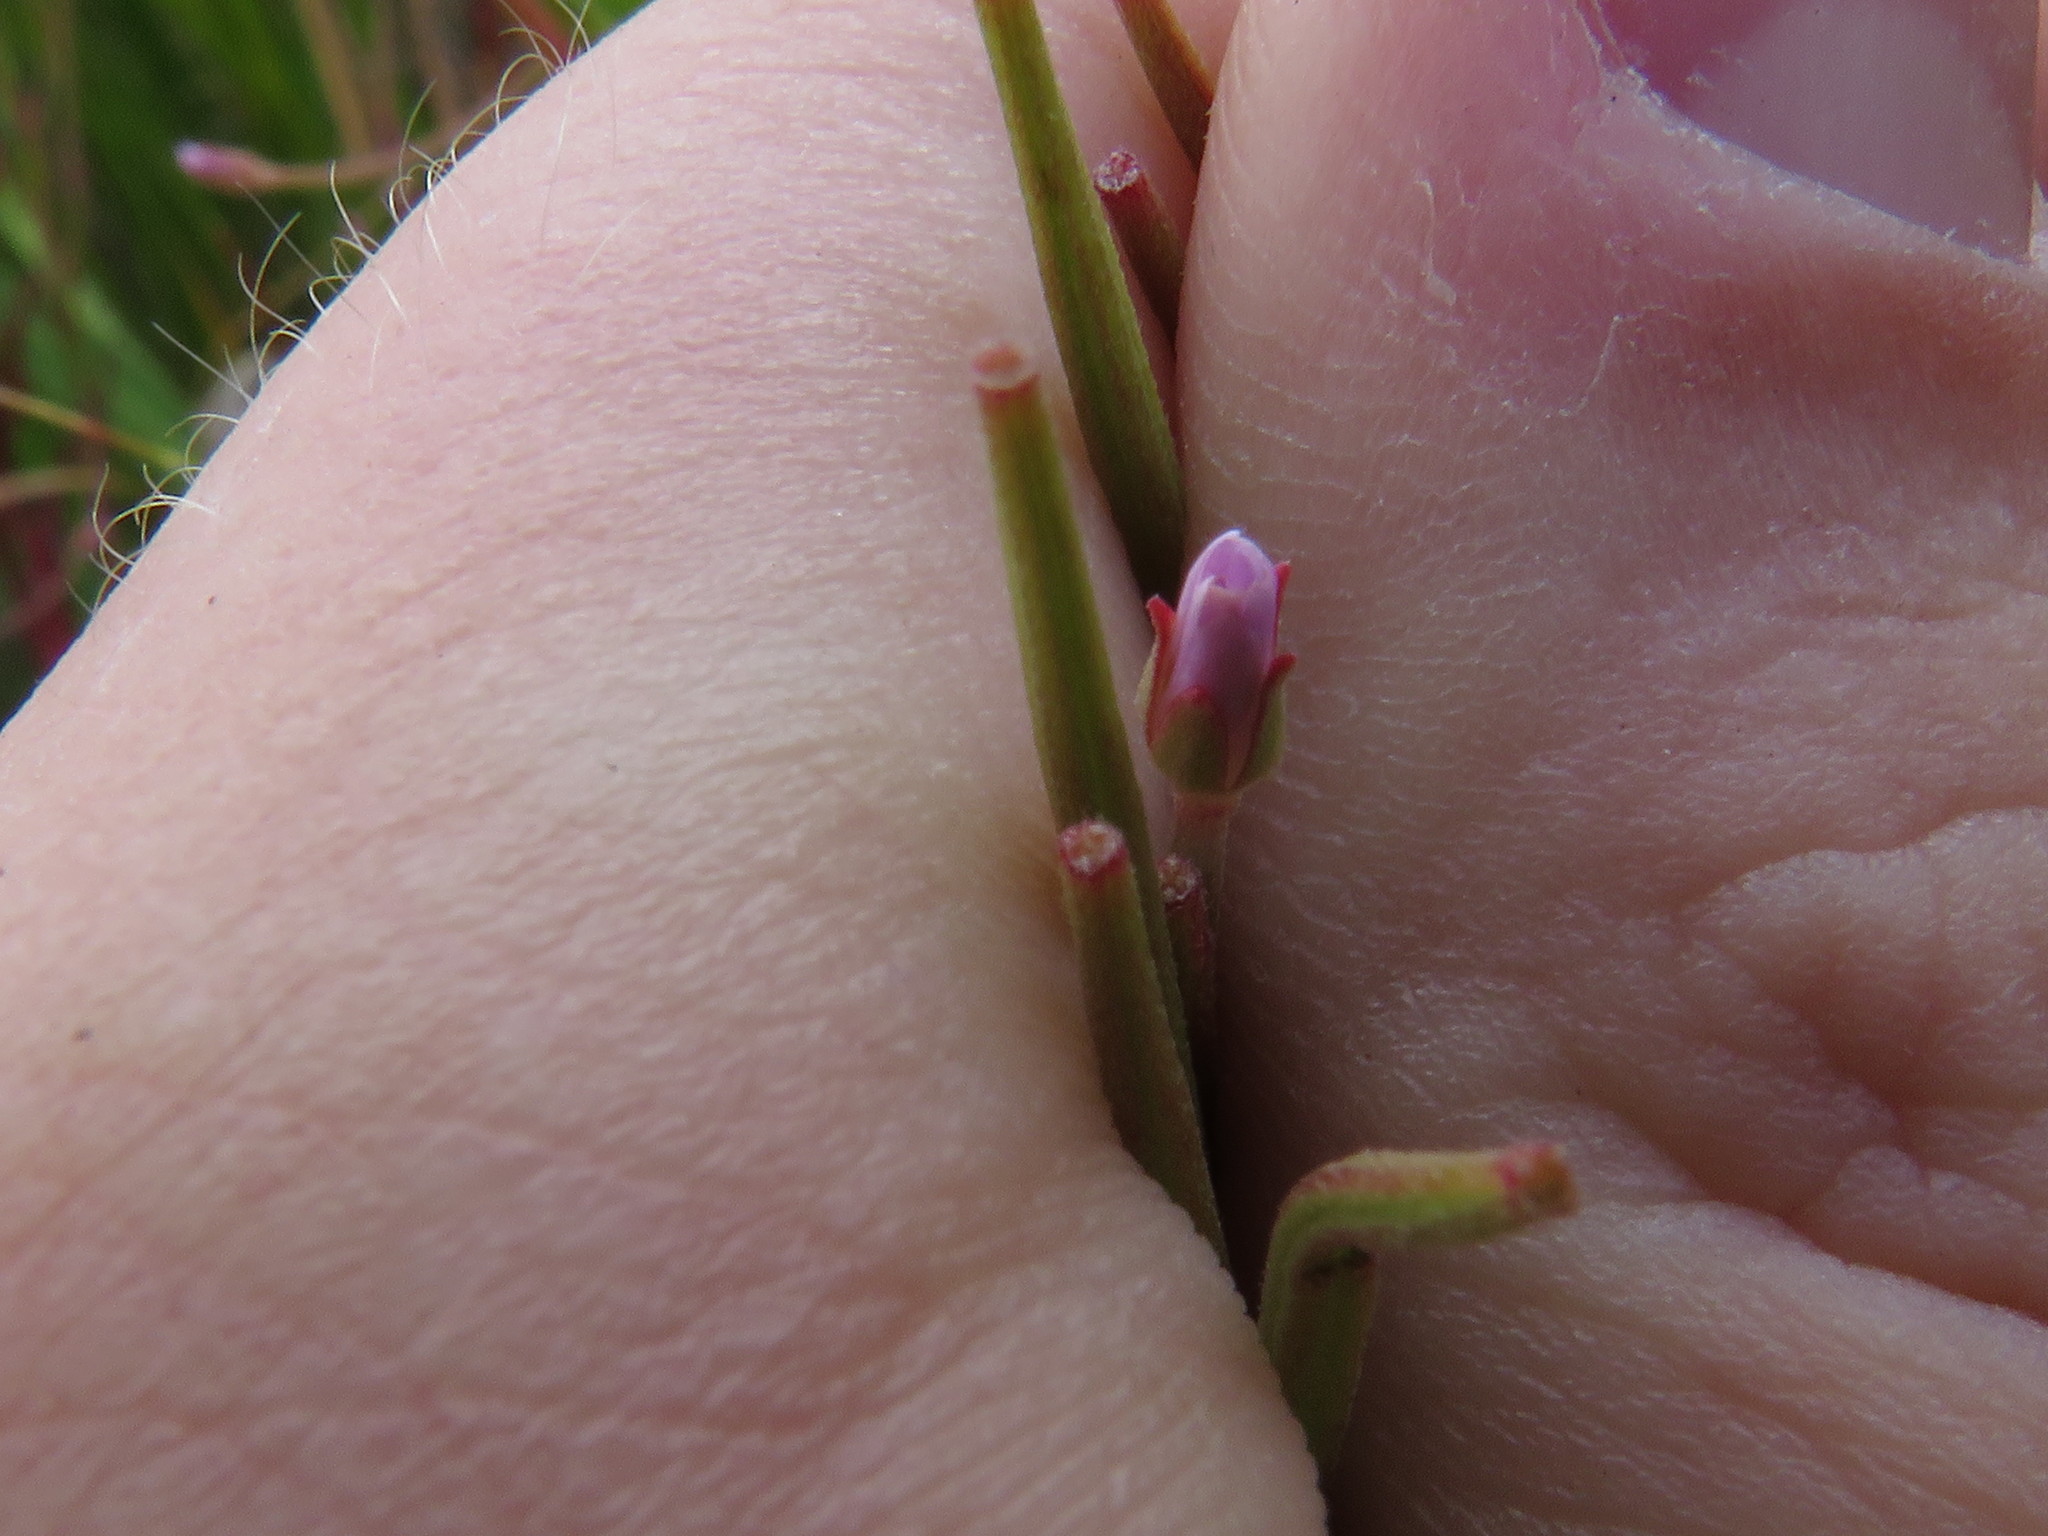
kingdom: Plantae
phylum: Tracheophyta
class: Magnoliopsida
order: Myrtales
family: Onagraceae
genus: Epilobium
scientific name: Epilobium tetragonum
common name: Square-stemmed willowherb
